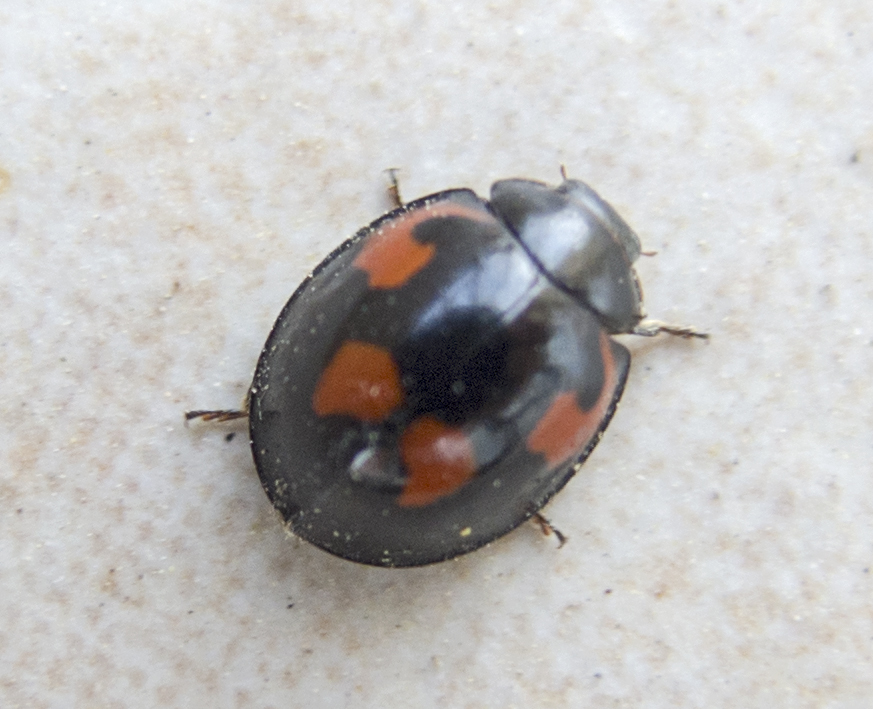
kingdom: Animalia
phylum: Arthropoda
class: Insecta
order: Coleoptera
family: Coccinellidae
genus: Brumus
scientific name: Brumus quadripustulatus
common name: Ladybird beetle
